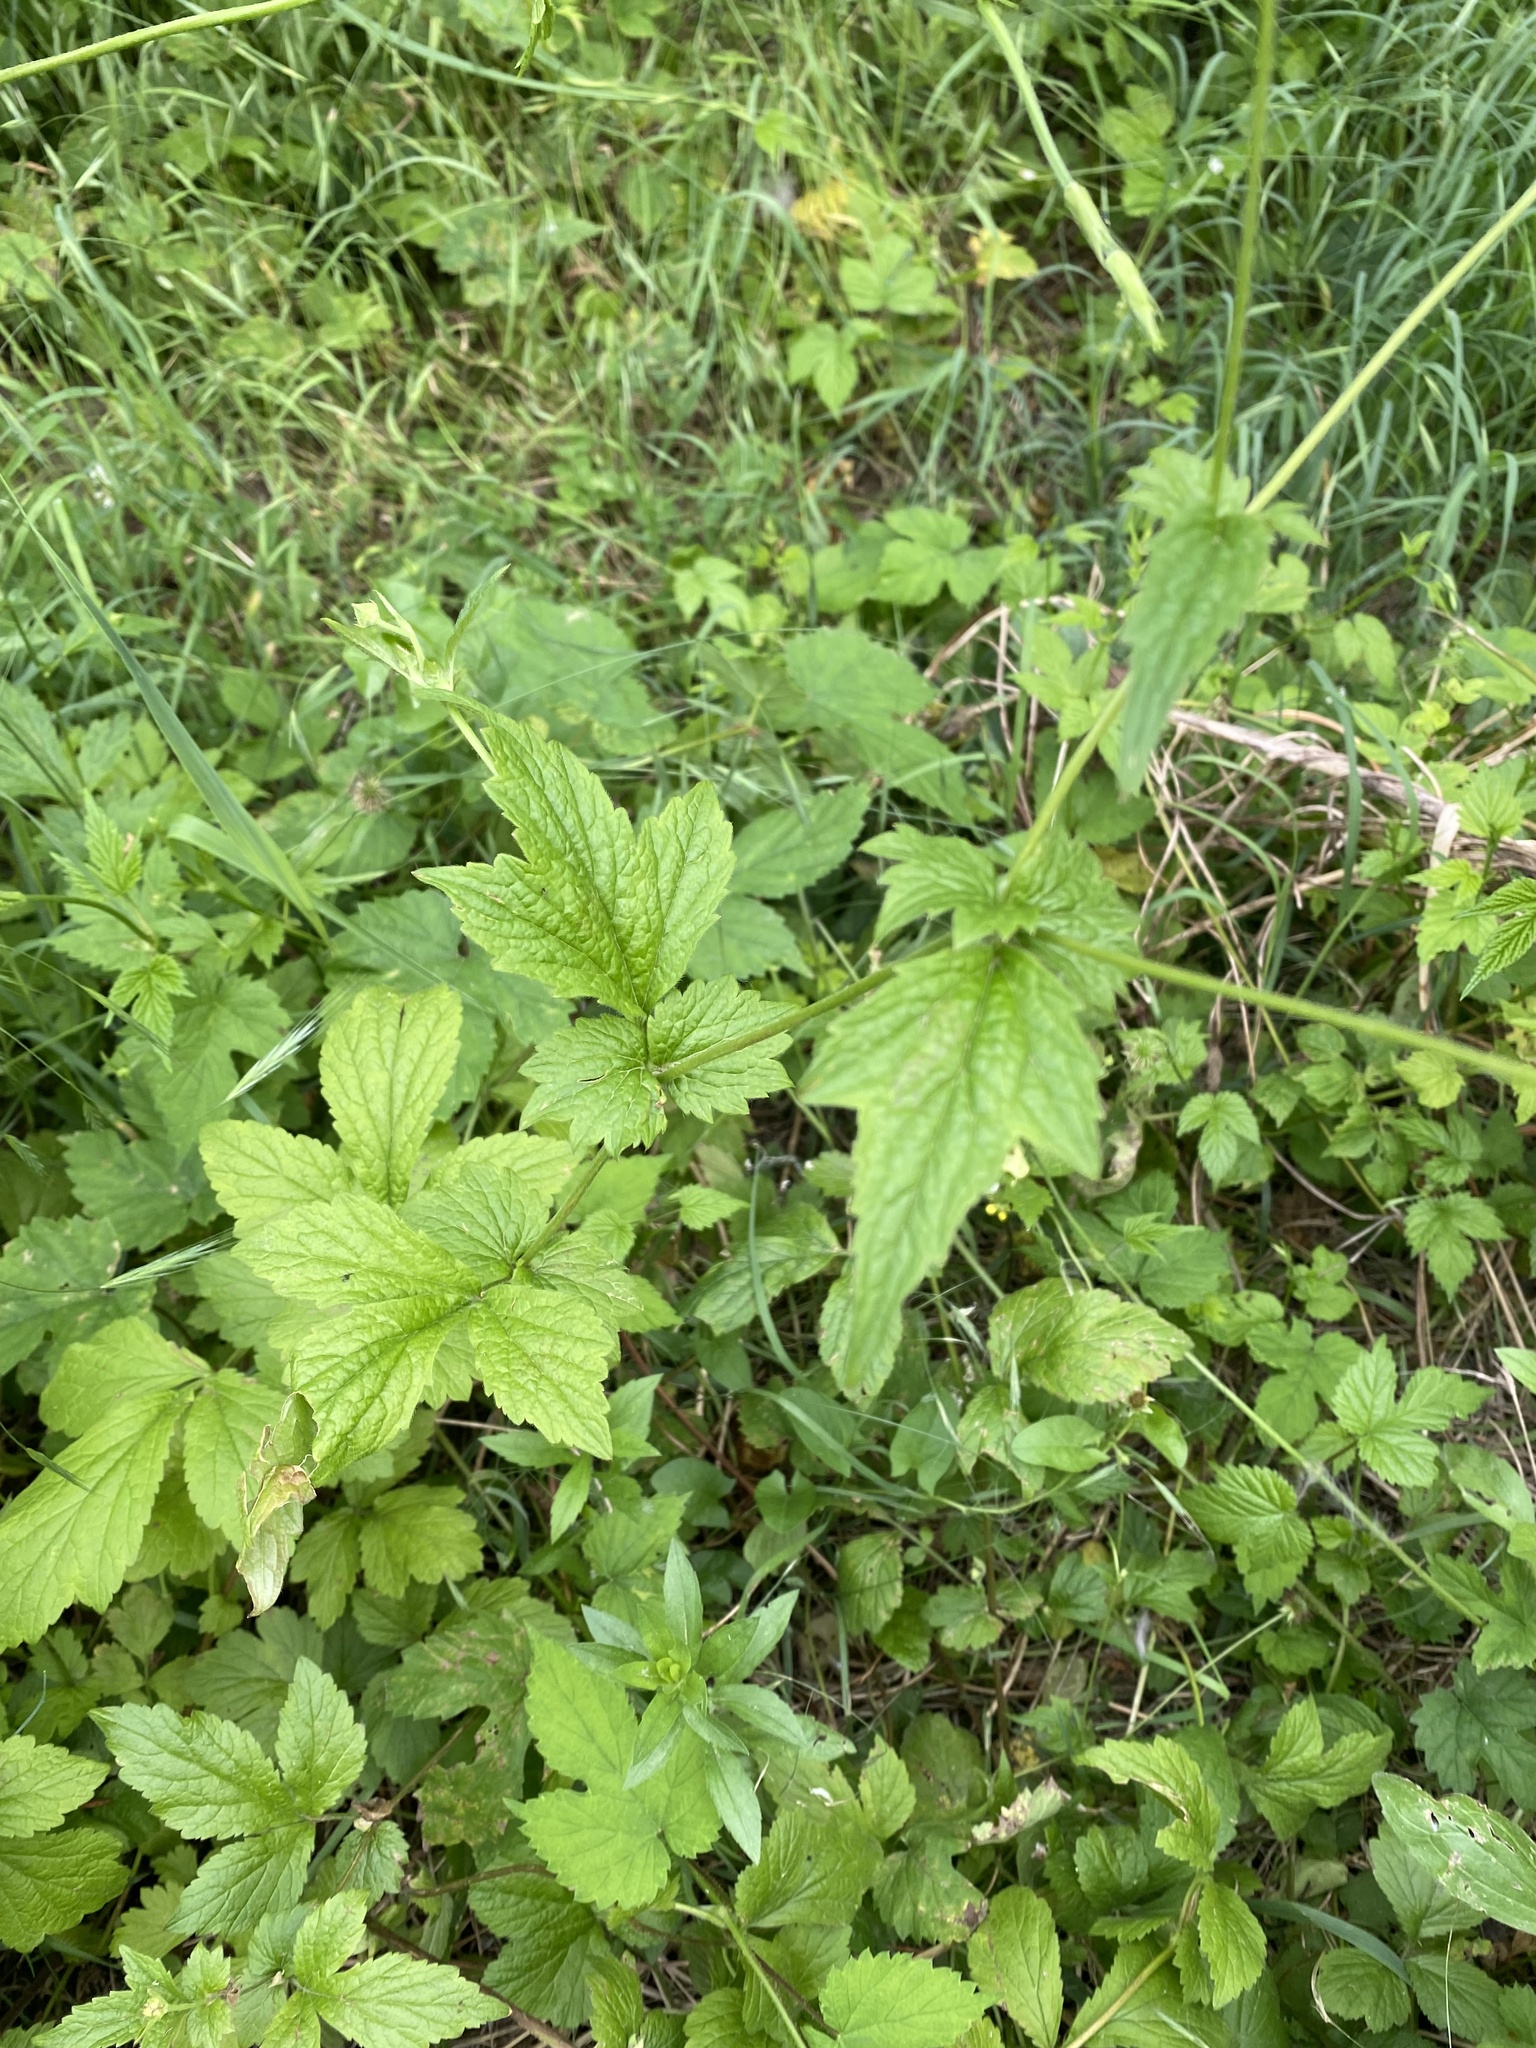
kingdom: Plantae
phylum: Tracheophyta
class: Magnoliopsida
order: Rosales
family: Rosaceae
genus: Geum
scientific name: Geum urbanum
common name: Wood avens
